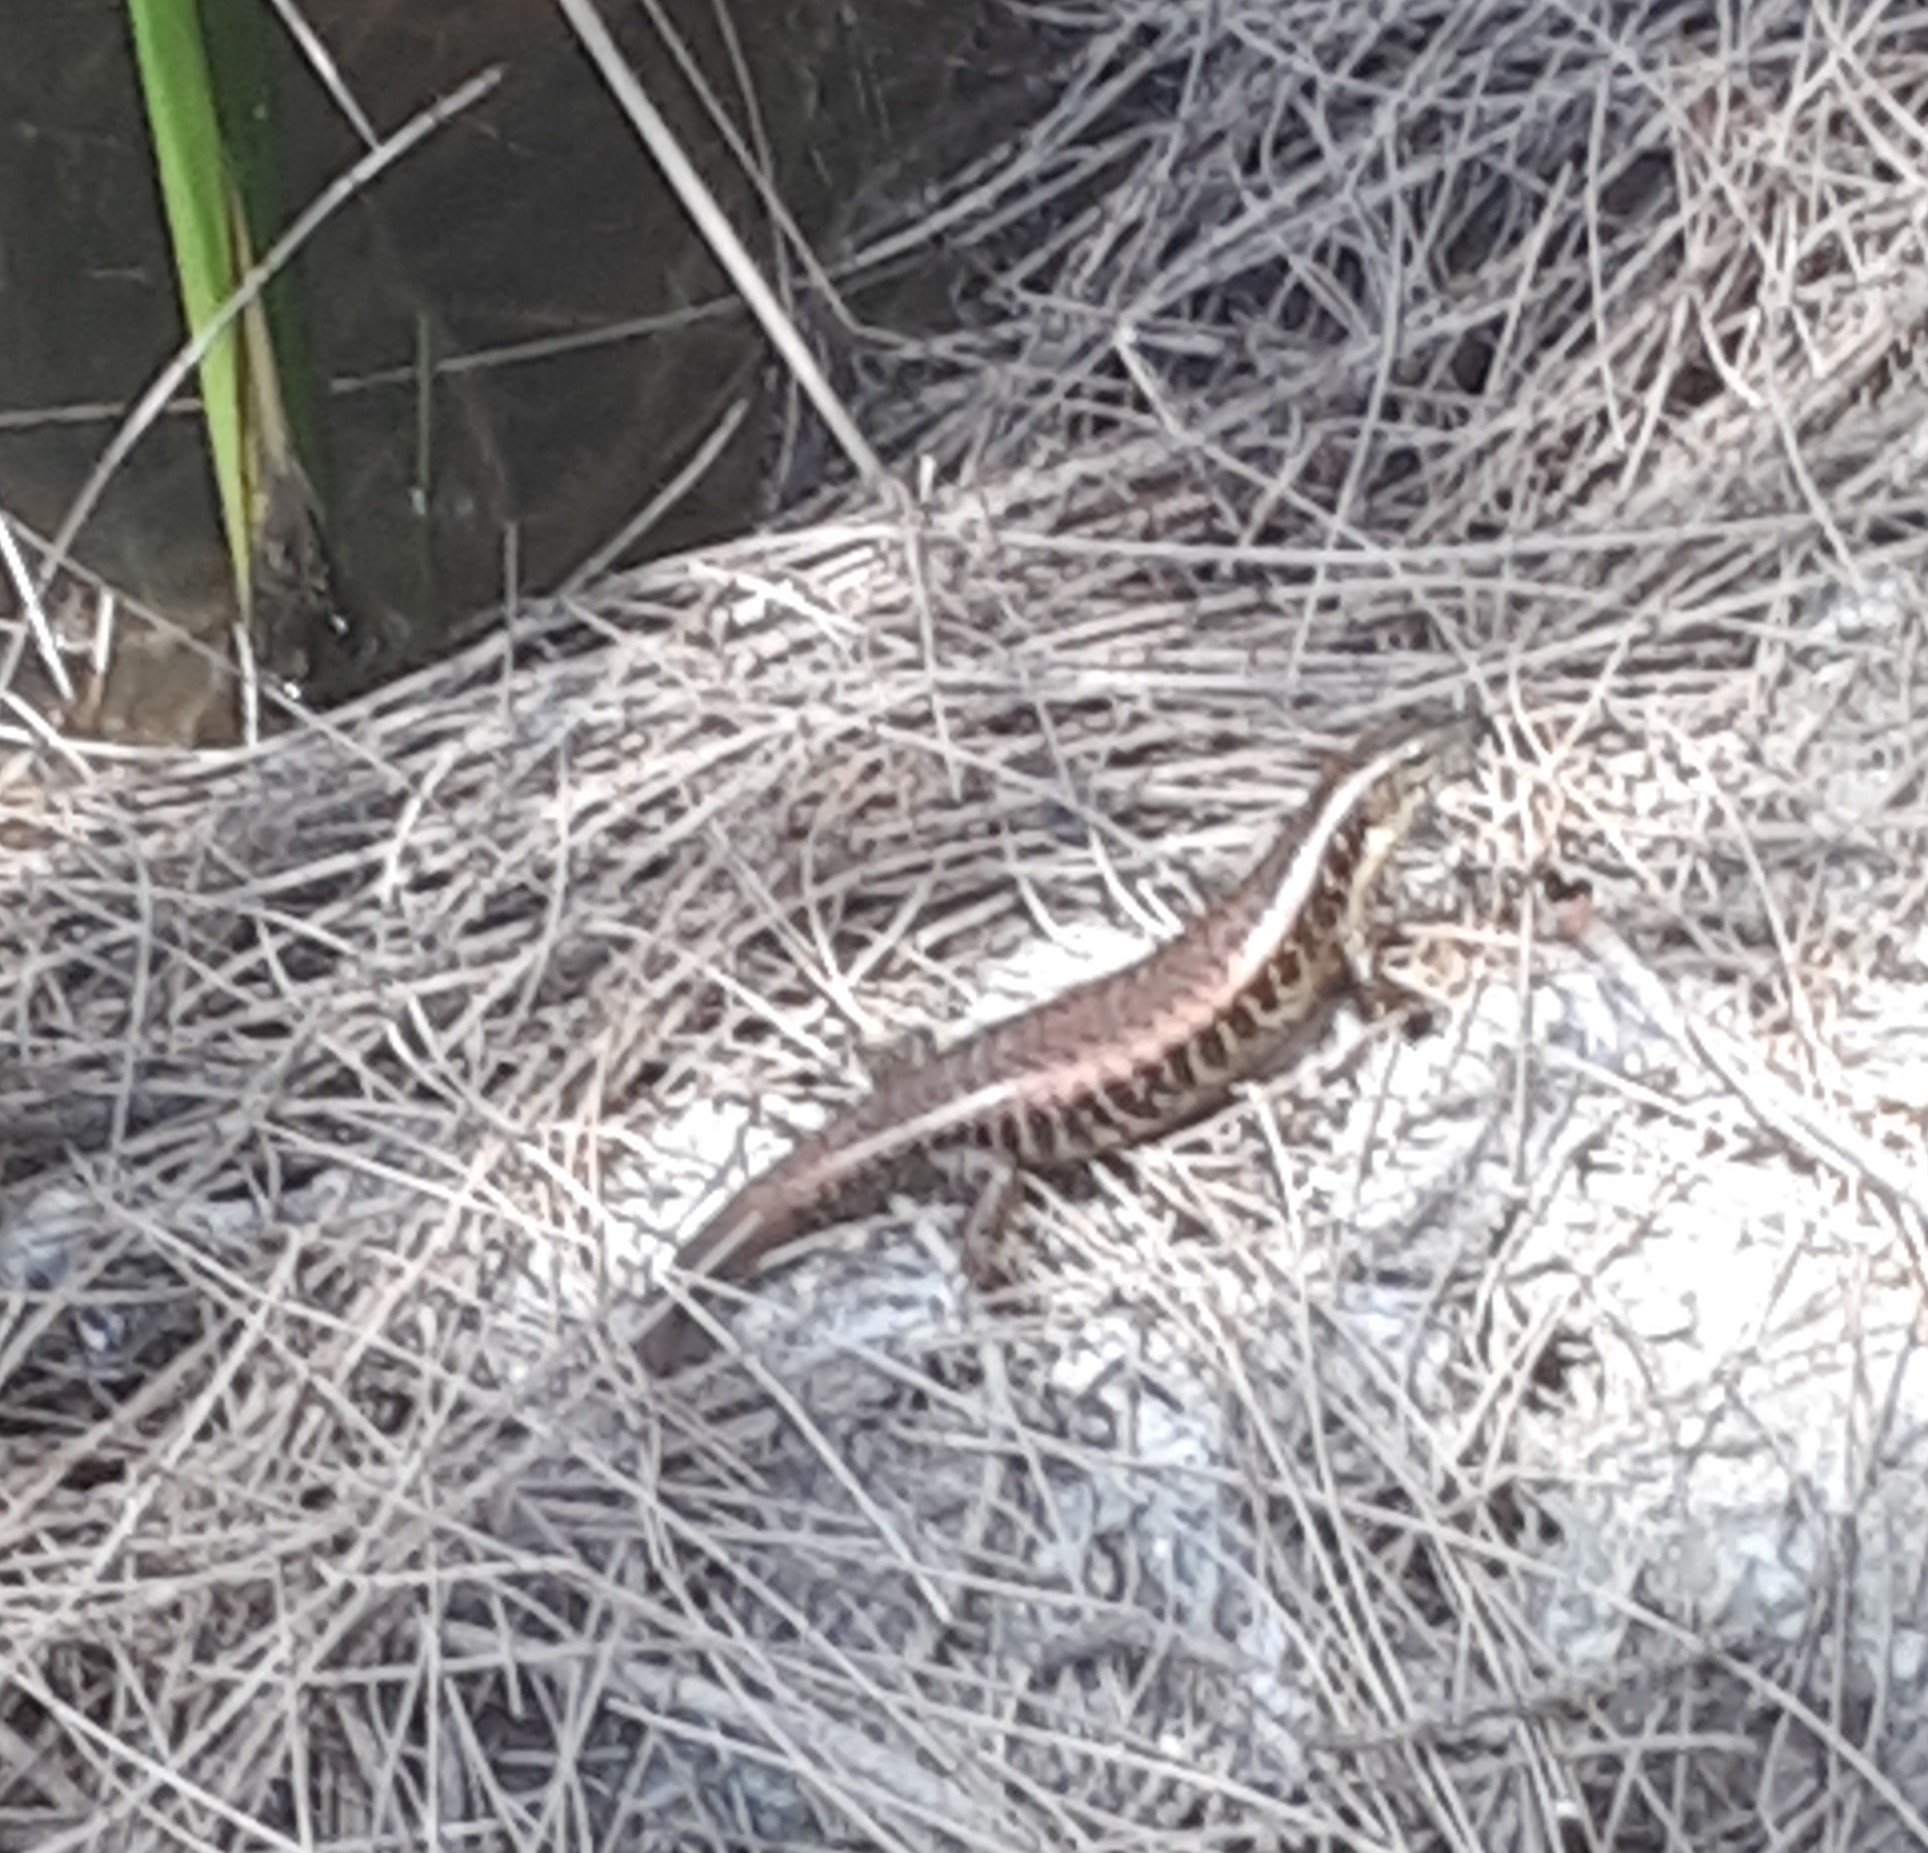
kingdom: Animalia
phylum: Chordata
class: Squamata
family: Scincidae
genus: Eulamprus
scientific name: Eulamprus quoyii
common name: Eastern water skink
